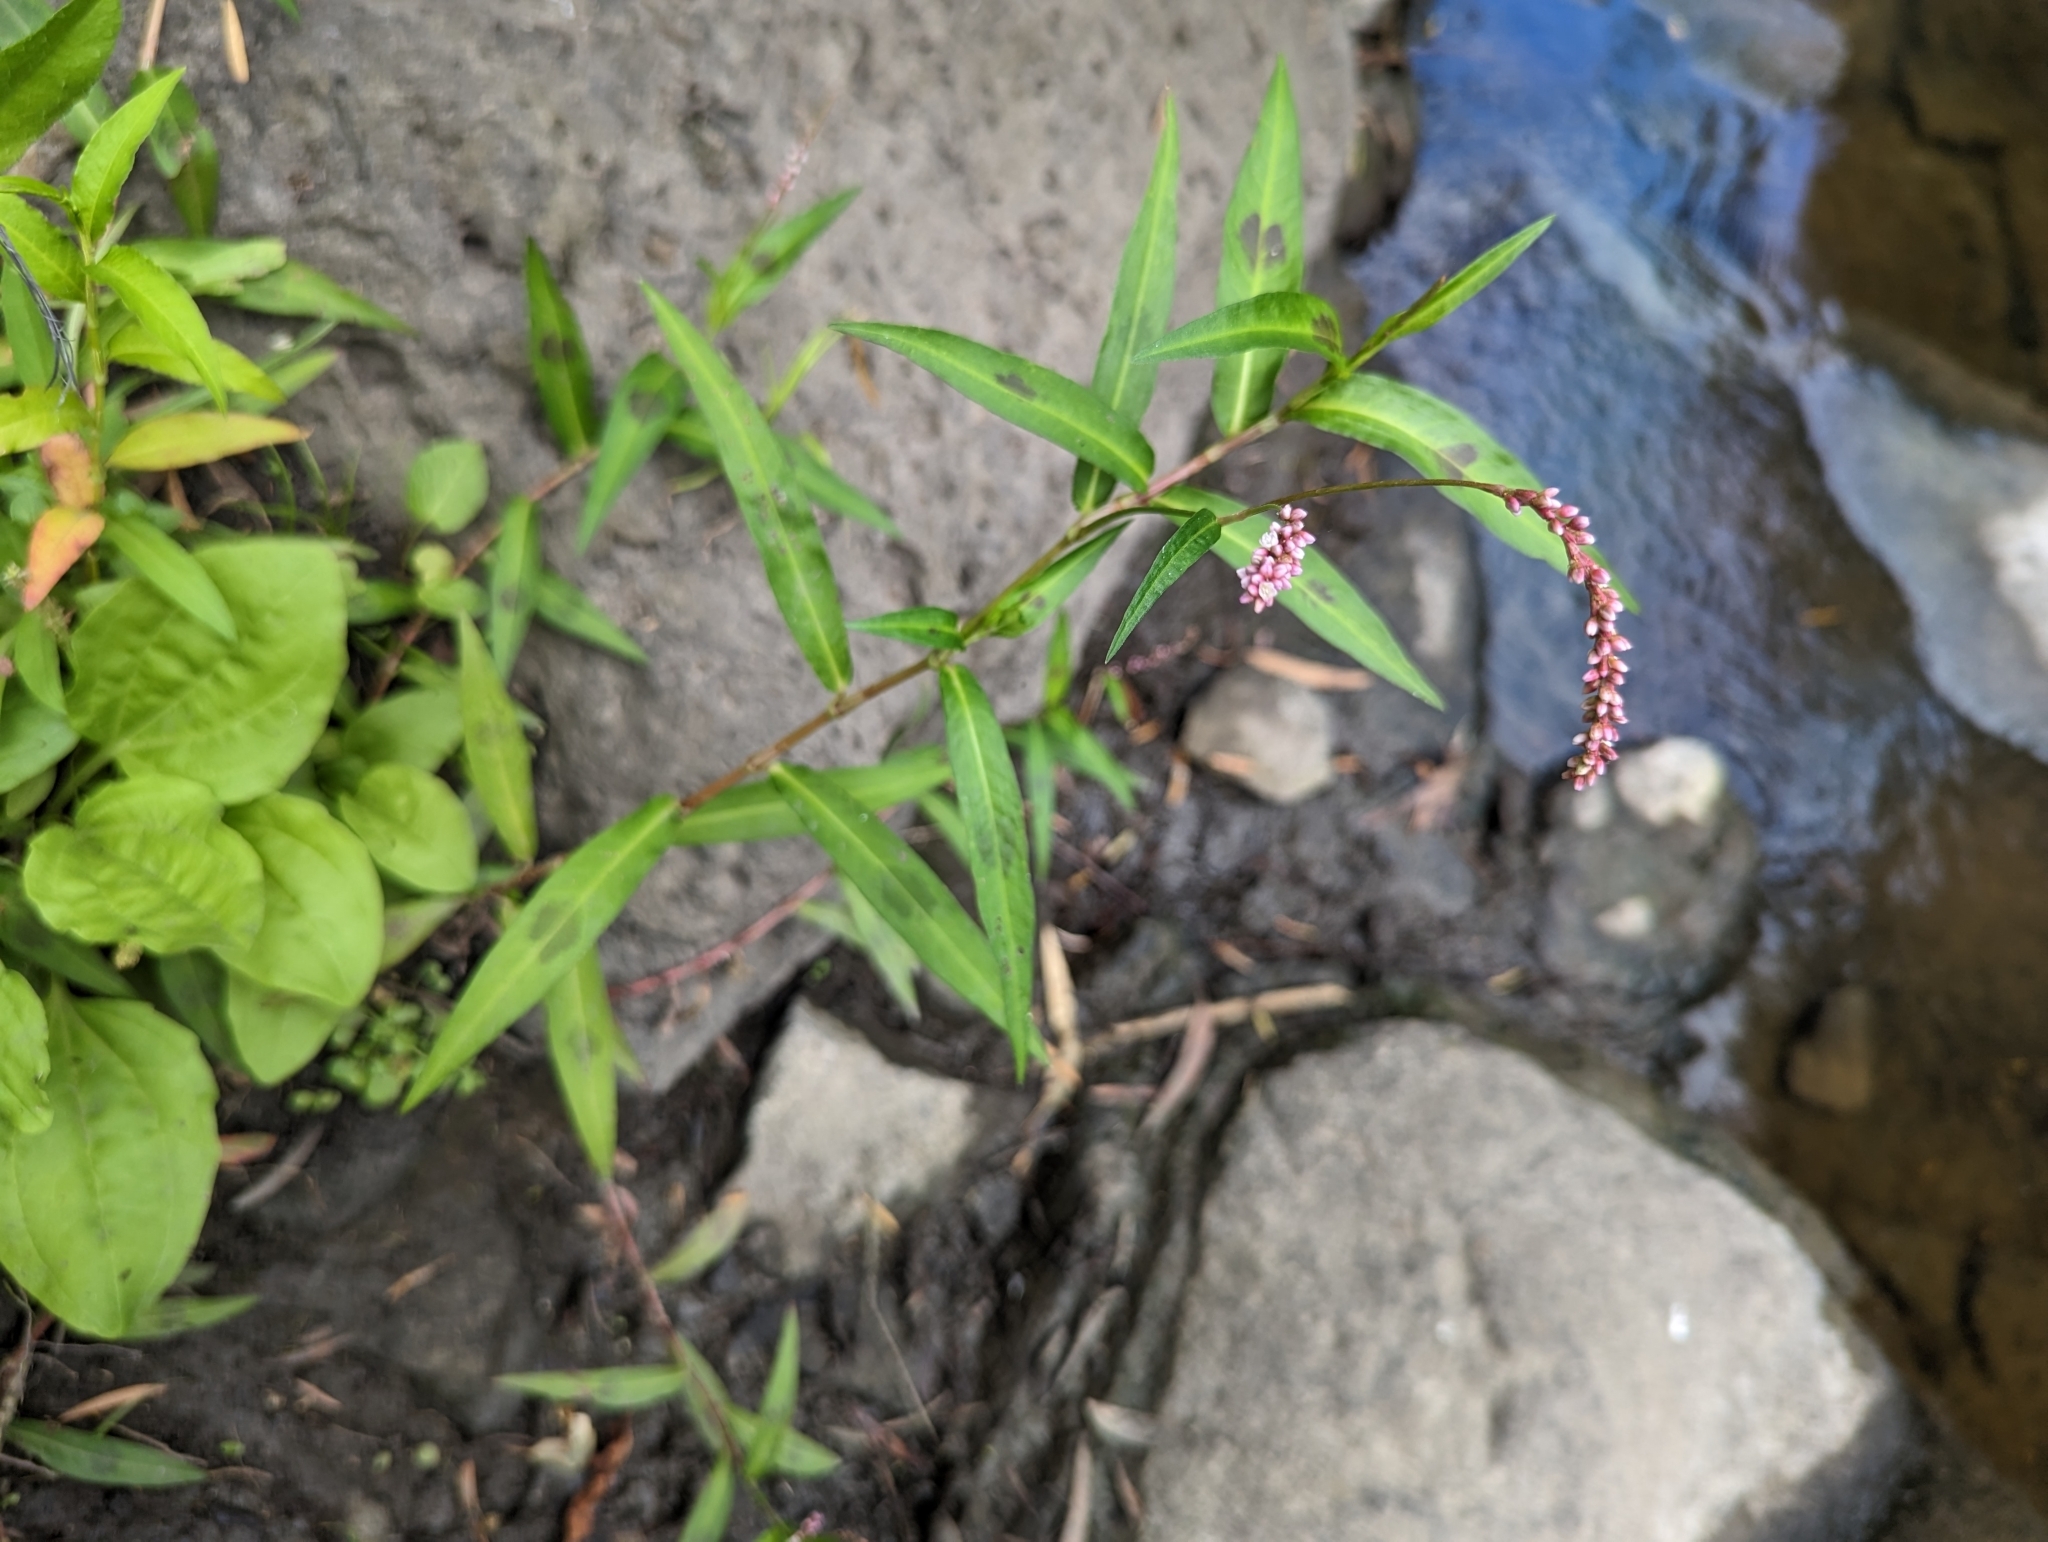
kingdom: Plantae
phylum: Tracheophyta
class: Magnoliopsida
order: Caryophyllales
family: Polygonaceae
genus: Persicaria
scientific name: Persicaria decipiens
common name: Willow-weed
